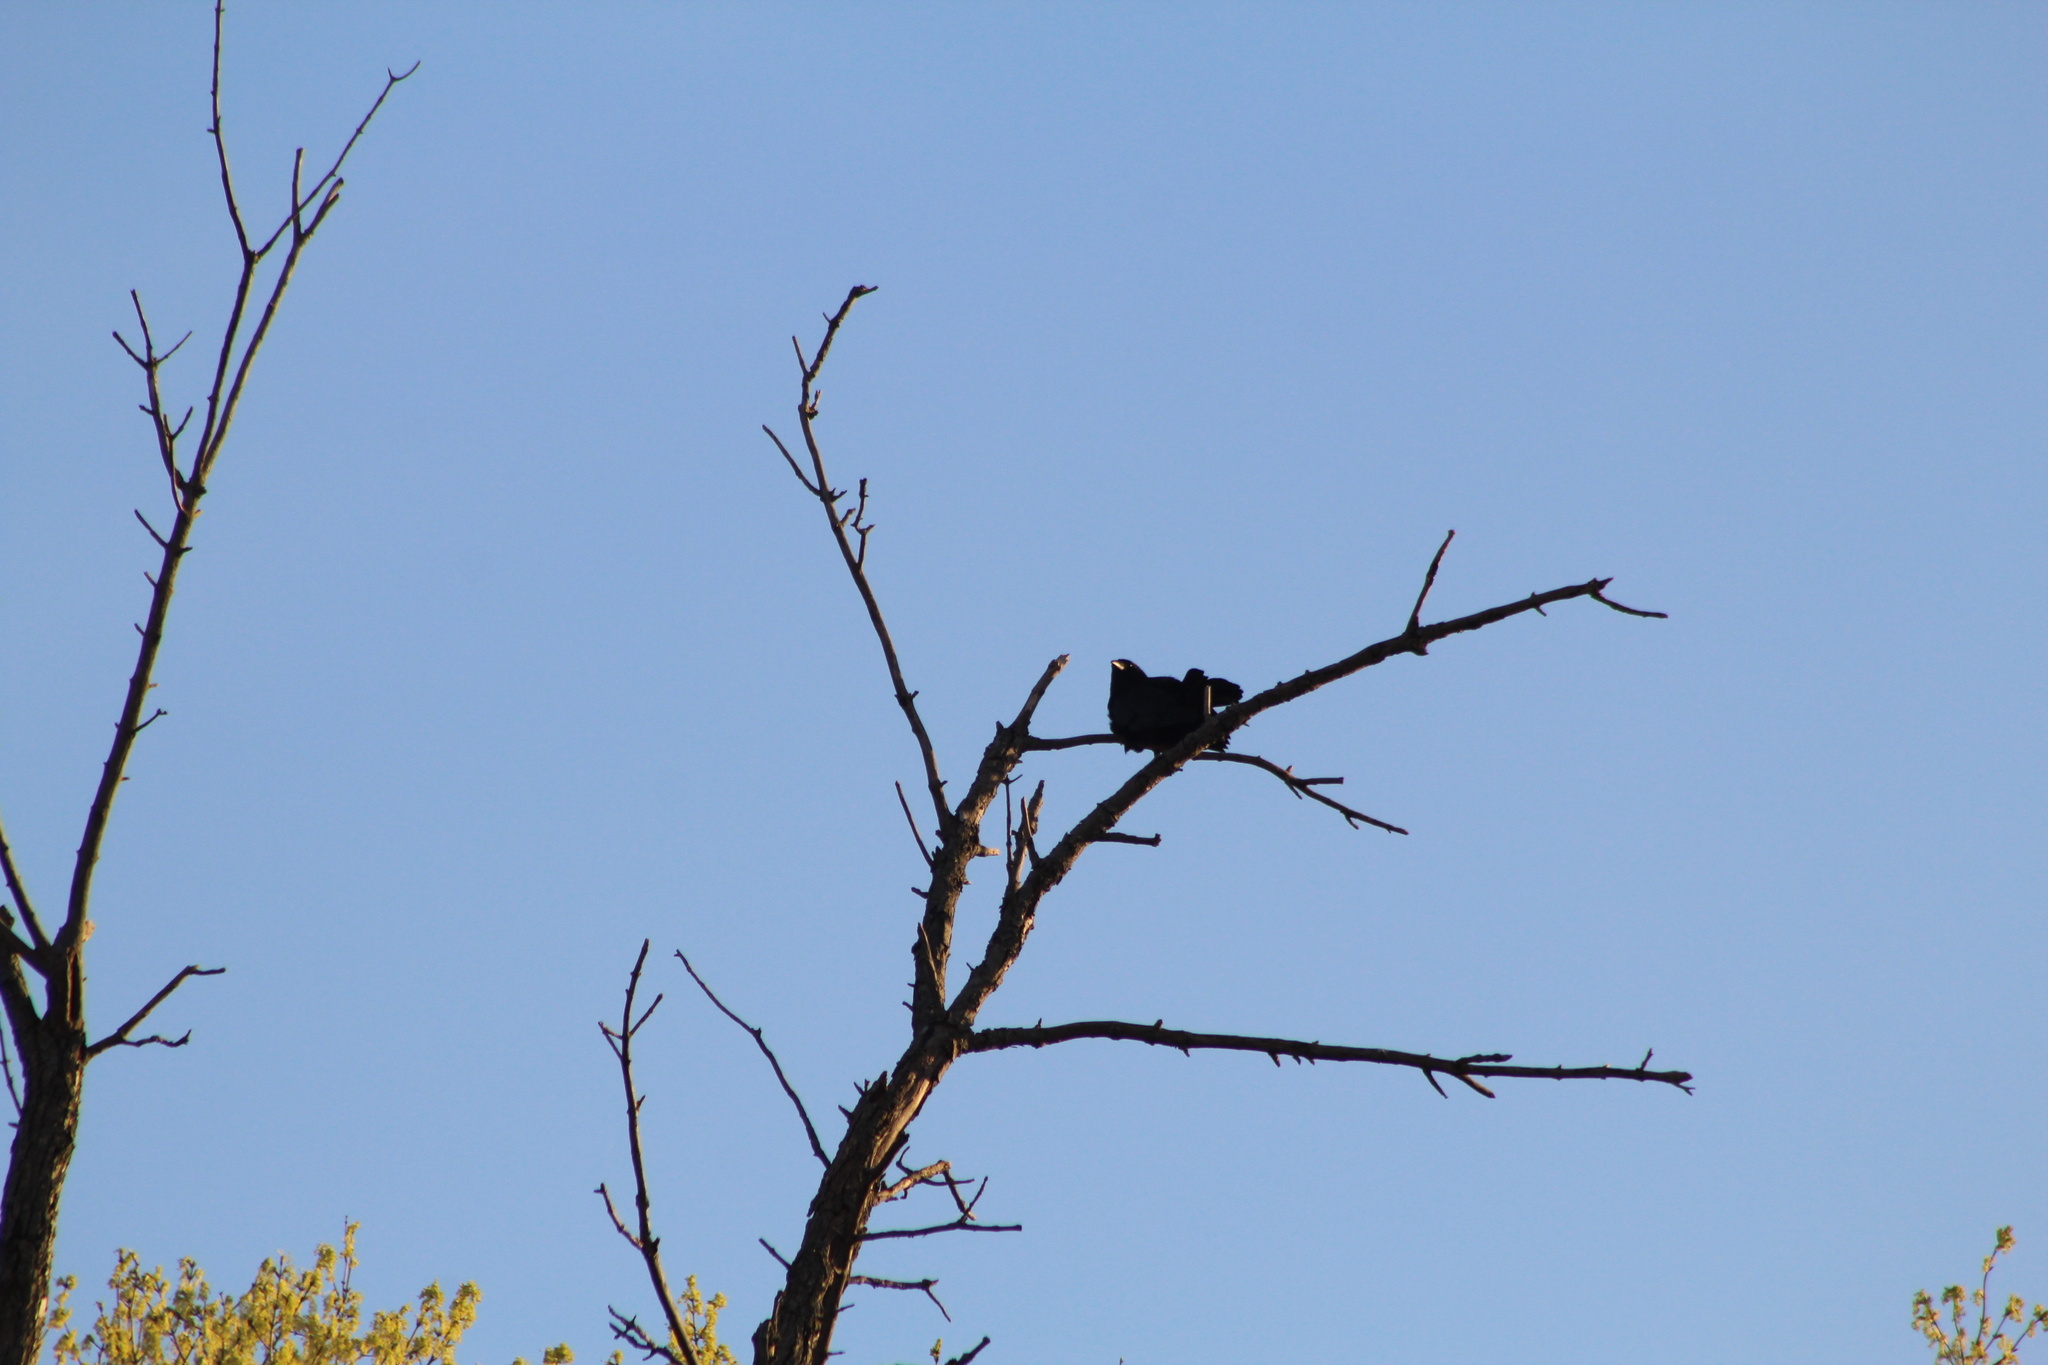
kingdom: Animalia
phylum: Chordata
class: Aves
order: Passeriformes
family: Corvidae
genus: Corvus
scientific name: Corvus brachyrhynchos
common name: American crow
